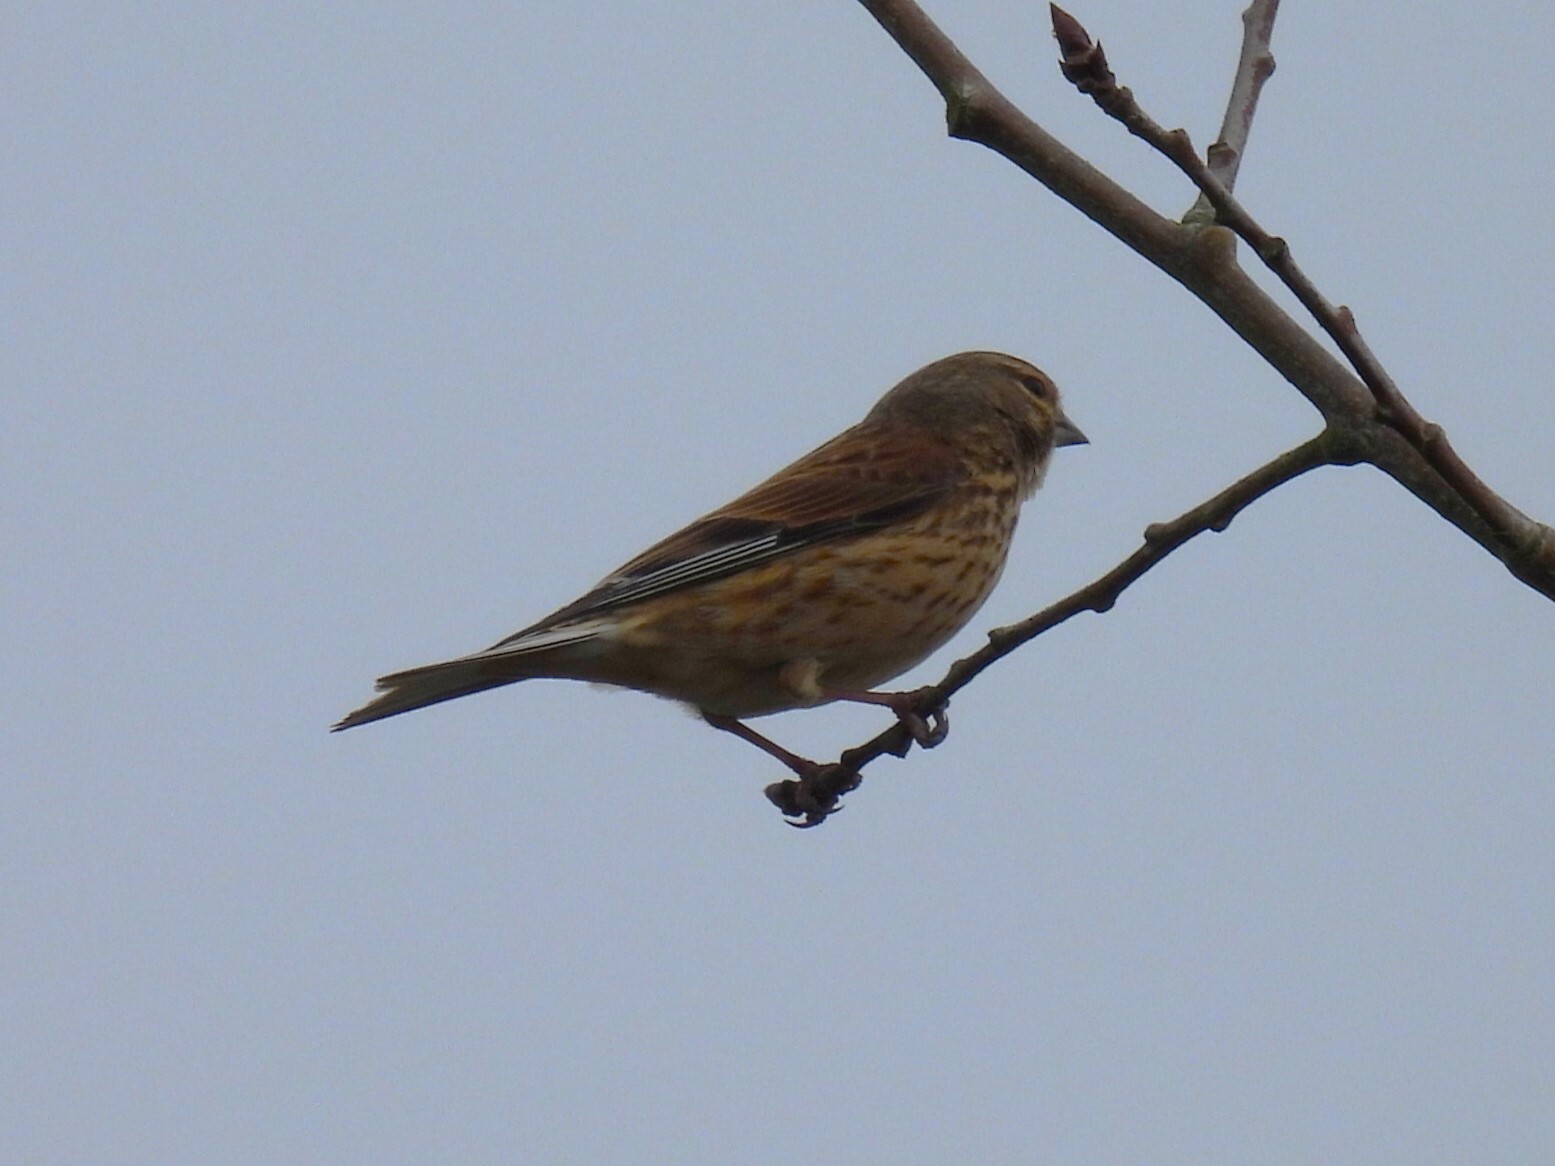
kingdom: Animalia
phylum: Chordata
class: Aves
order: Passeriformes
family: Fringillidae
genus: Linaria
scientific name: Linaria cannabina
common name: Common linnet
